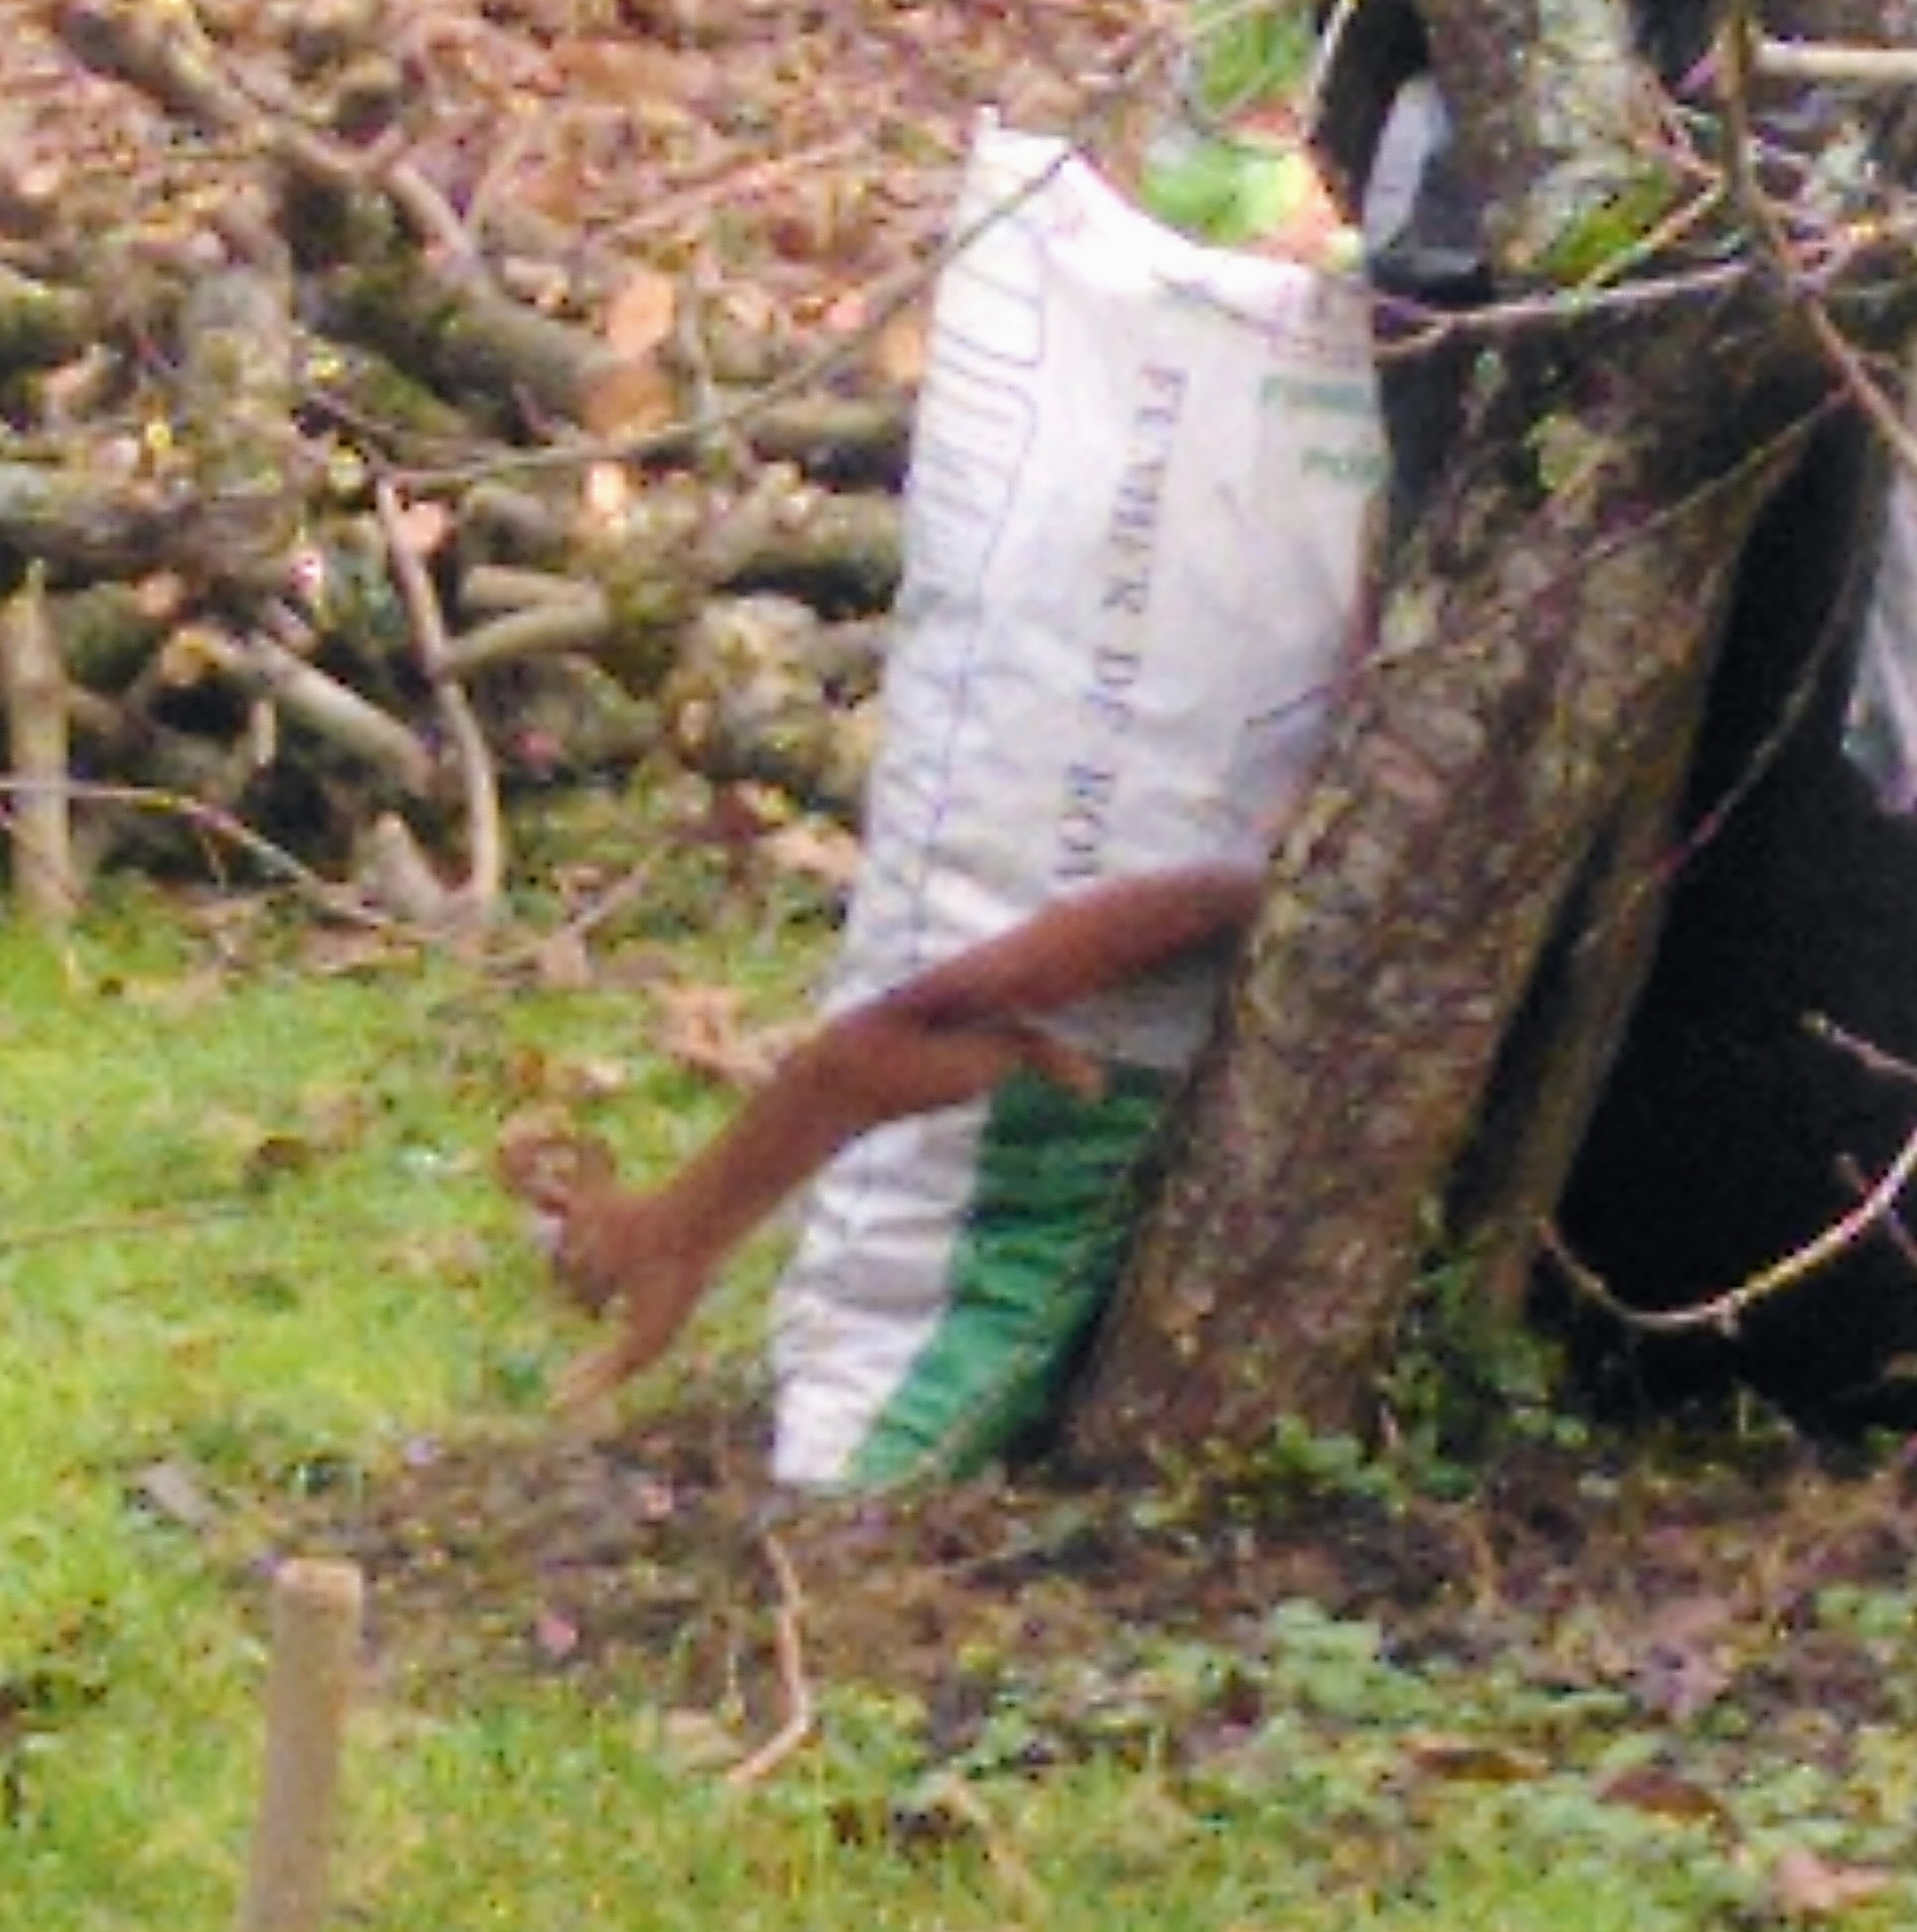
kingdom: Animalia
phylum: Chordata
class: Mammalia
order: Rodentia
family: Sciuridae
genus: Sciurus
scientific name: Sciurus vulgaris
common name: Eurasian red squirrel
